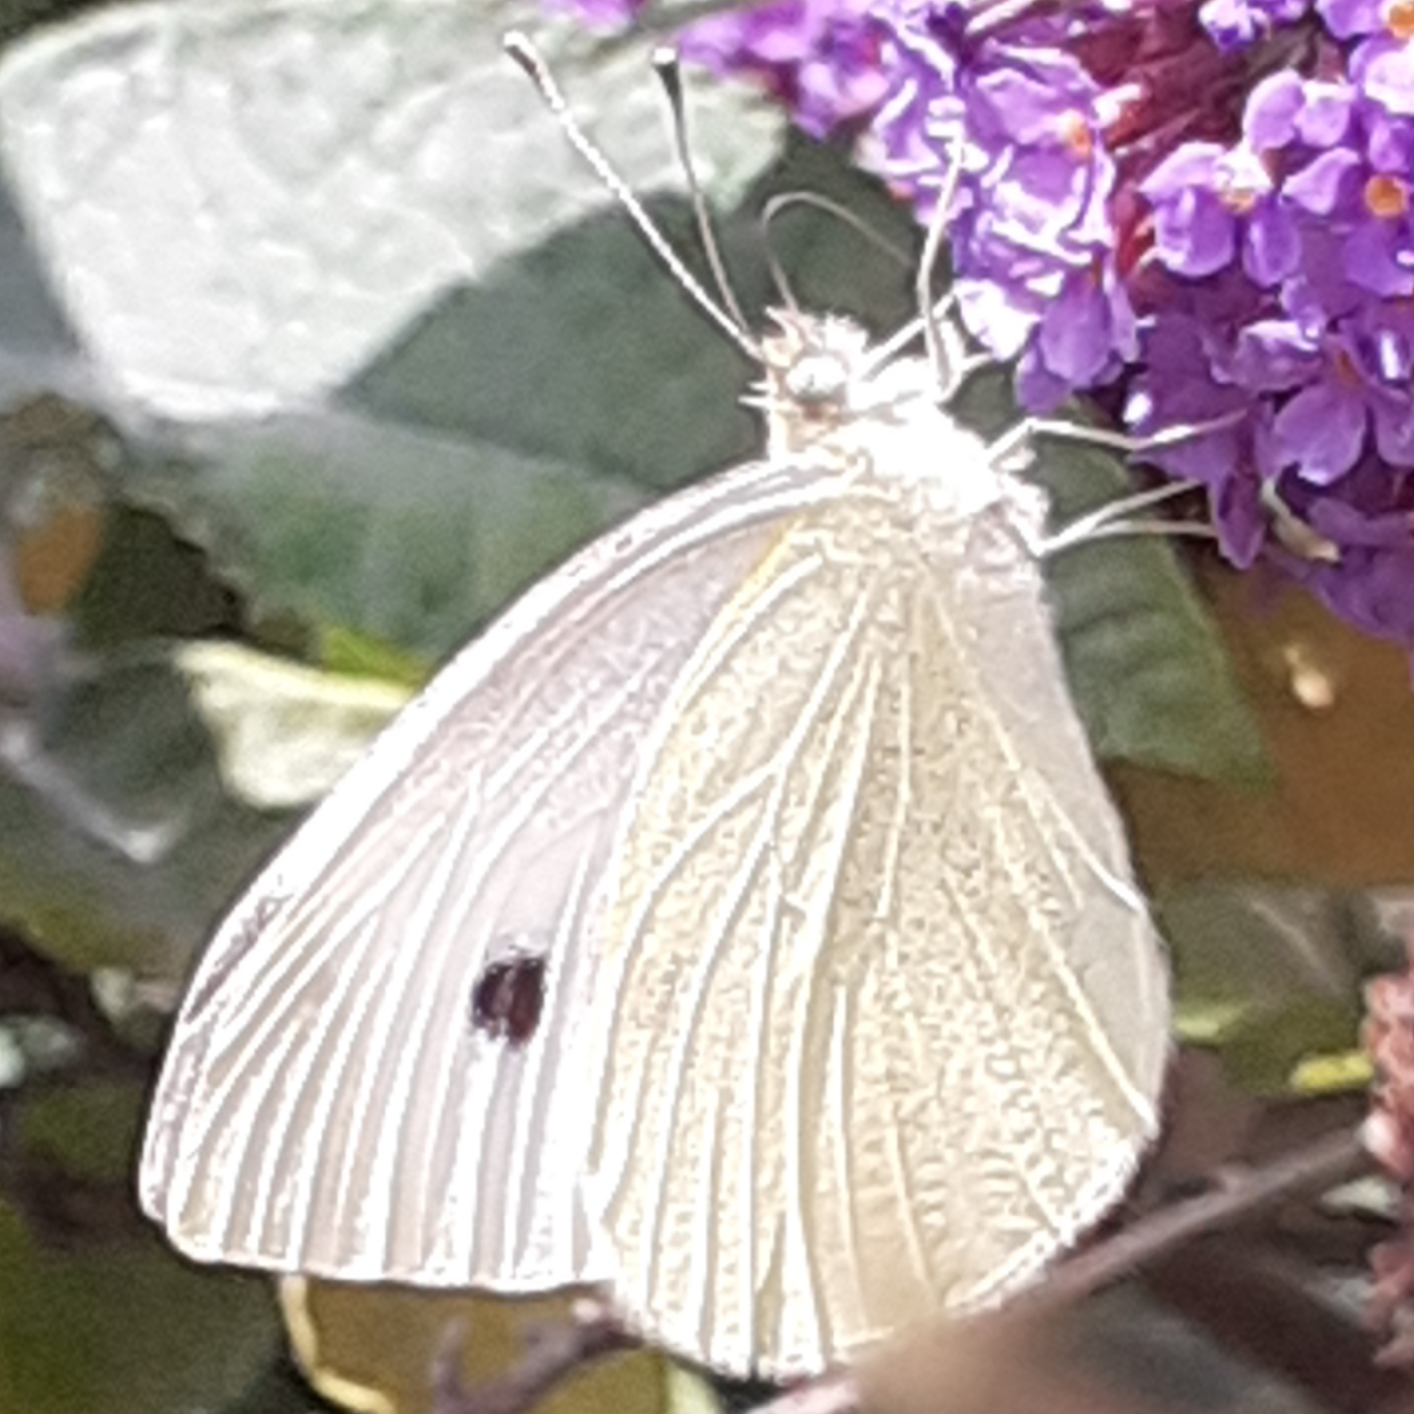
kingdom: Animalia
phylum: Arthropoda
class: Insecta
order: Lepidoptera
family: Pieridae
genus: Pieris
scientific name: Pieris rapae
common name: Small white
